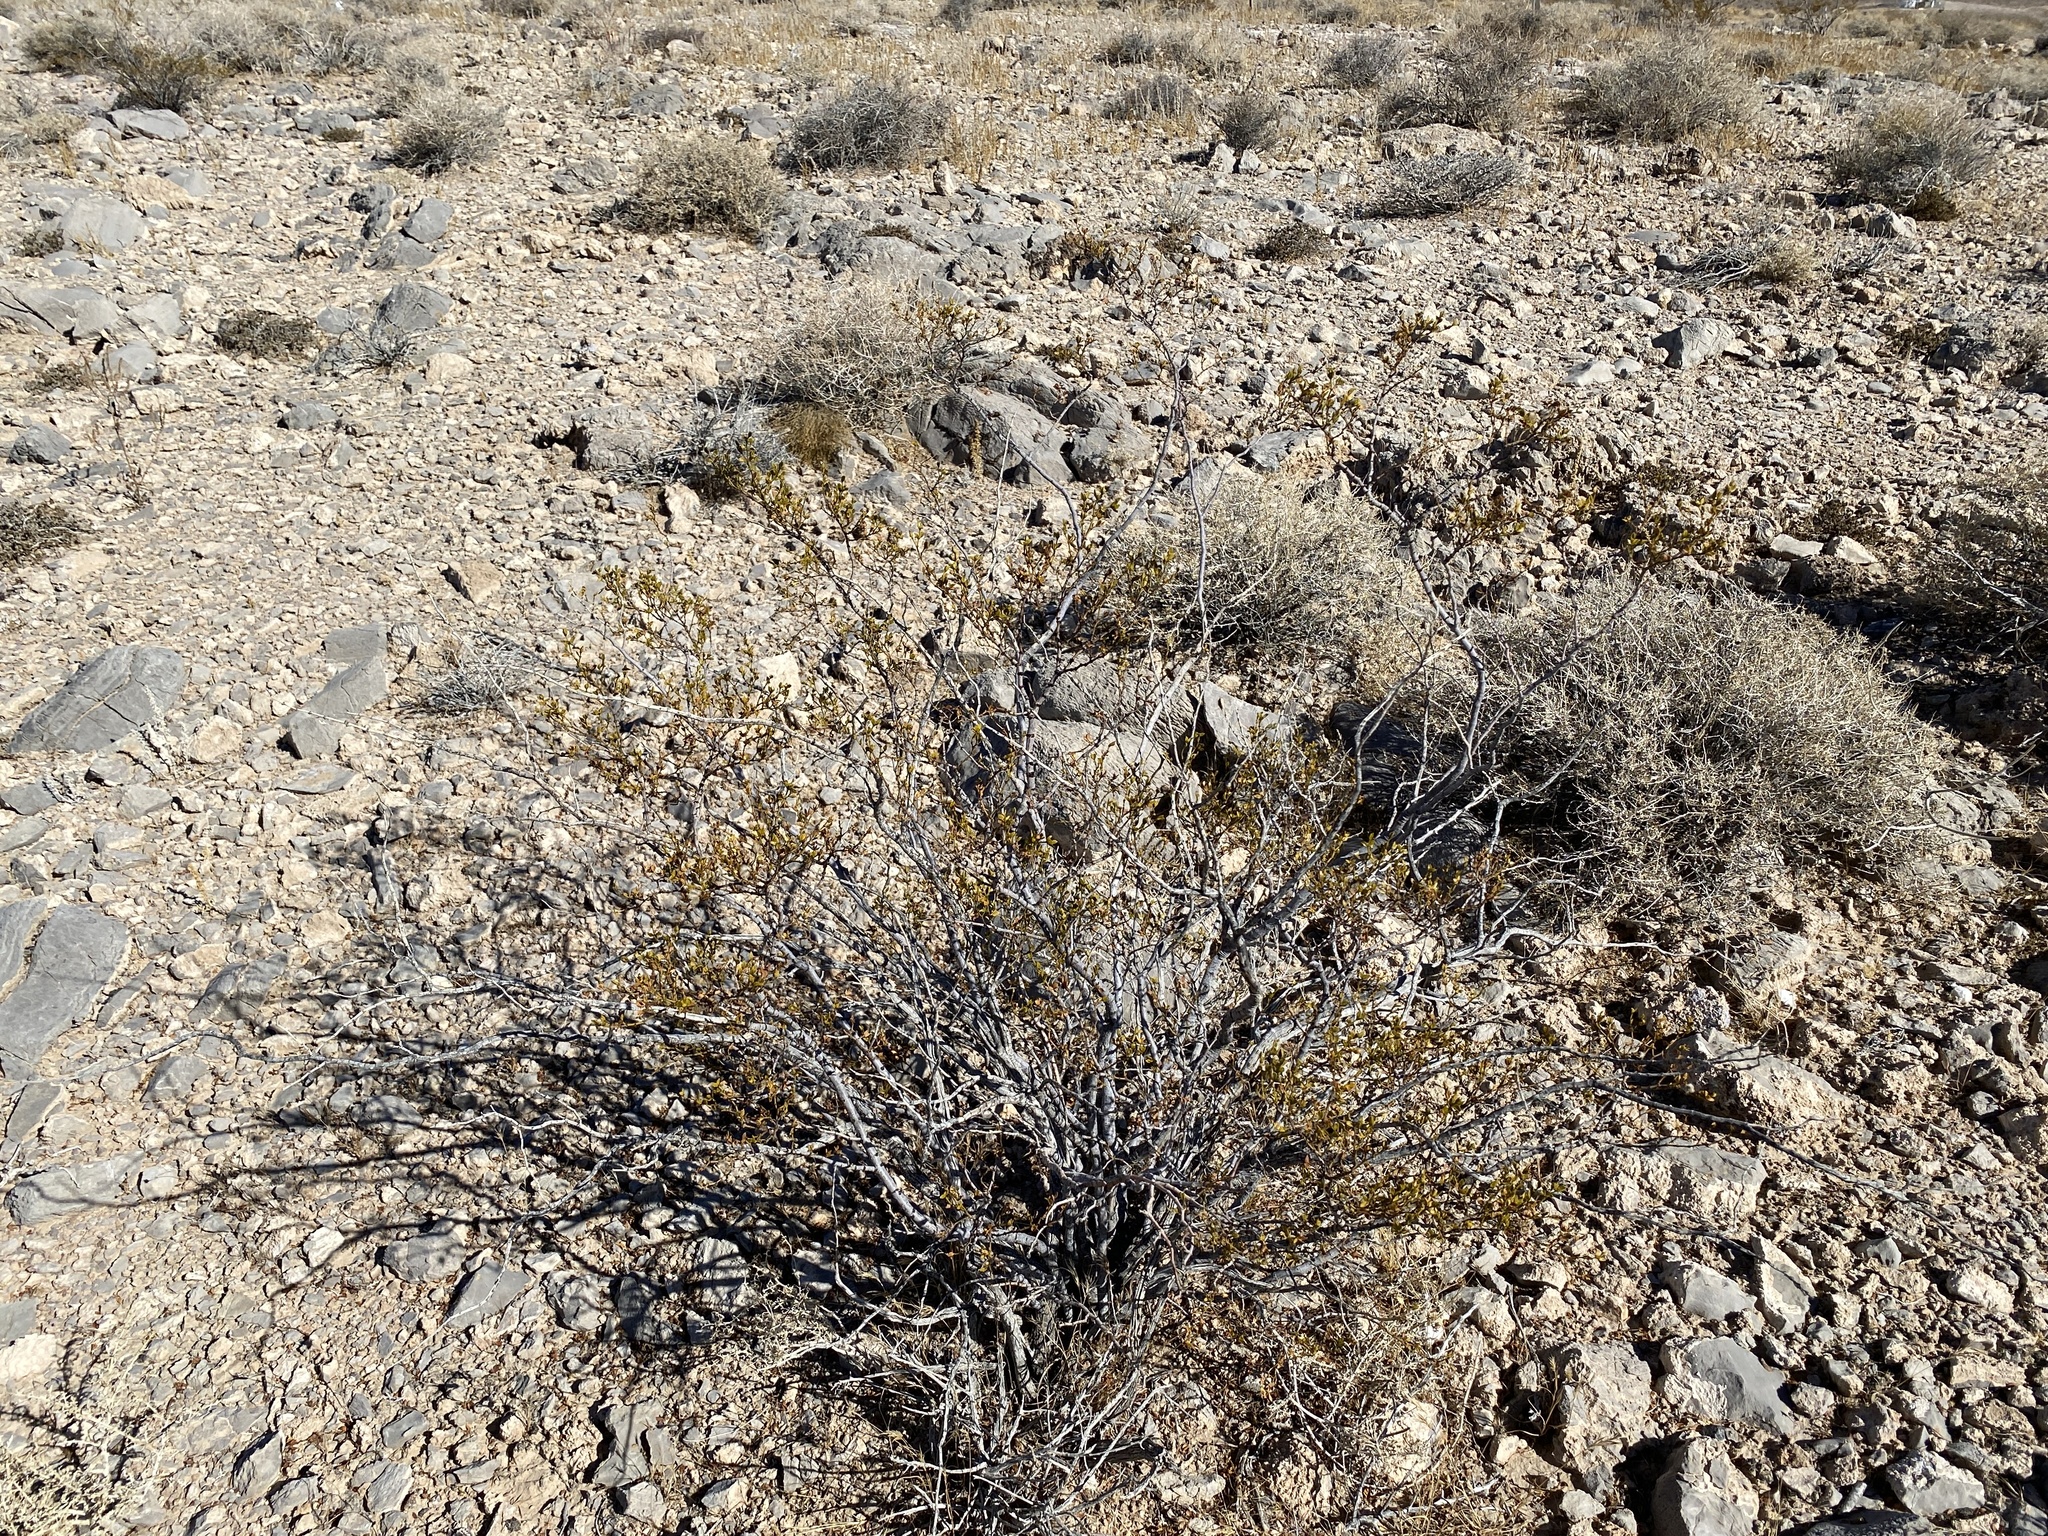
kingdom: Plantae
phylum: Tracheophyta
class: Magnoliopsida
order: Zygophyllales
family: Zygophyllaceae
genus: Larrea
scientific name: Larrea tridentata
